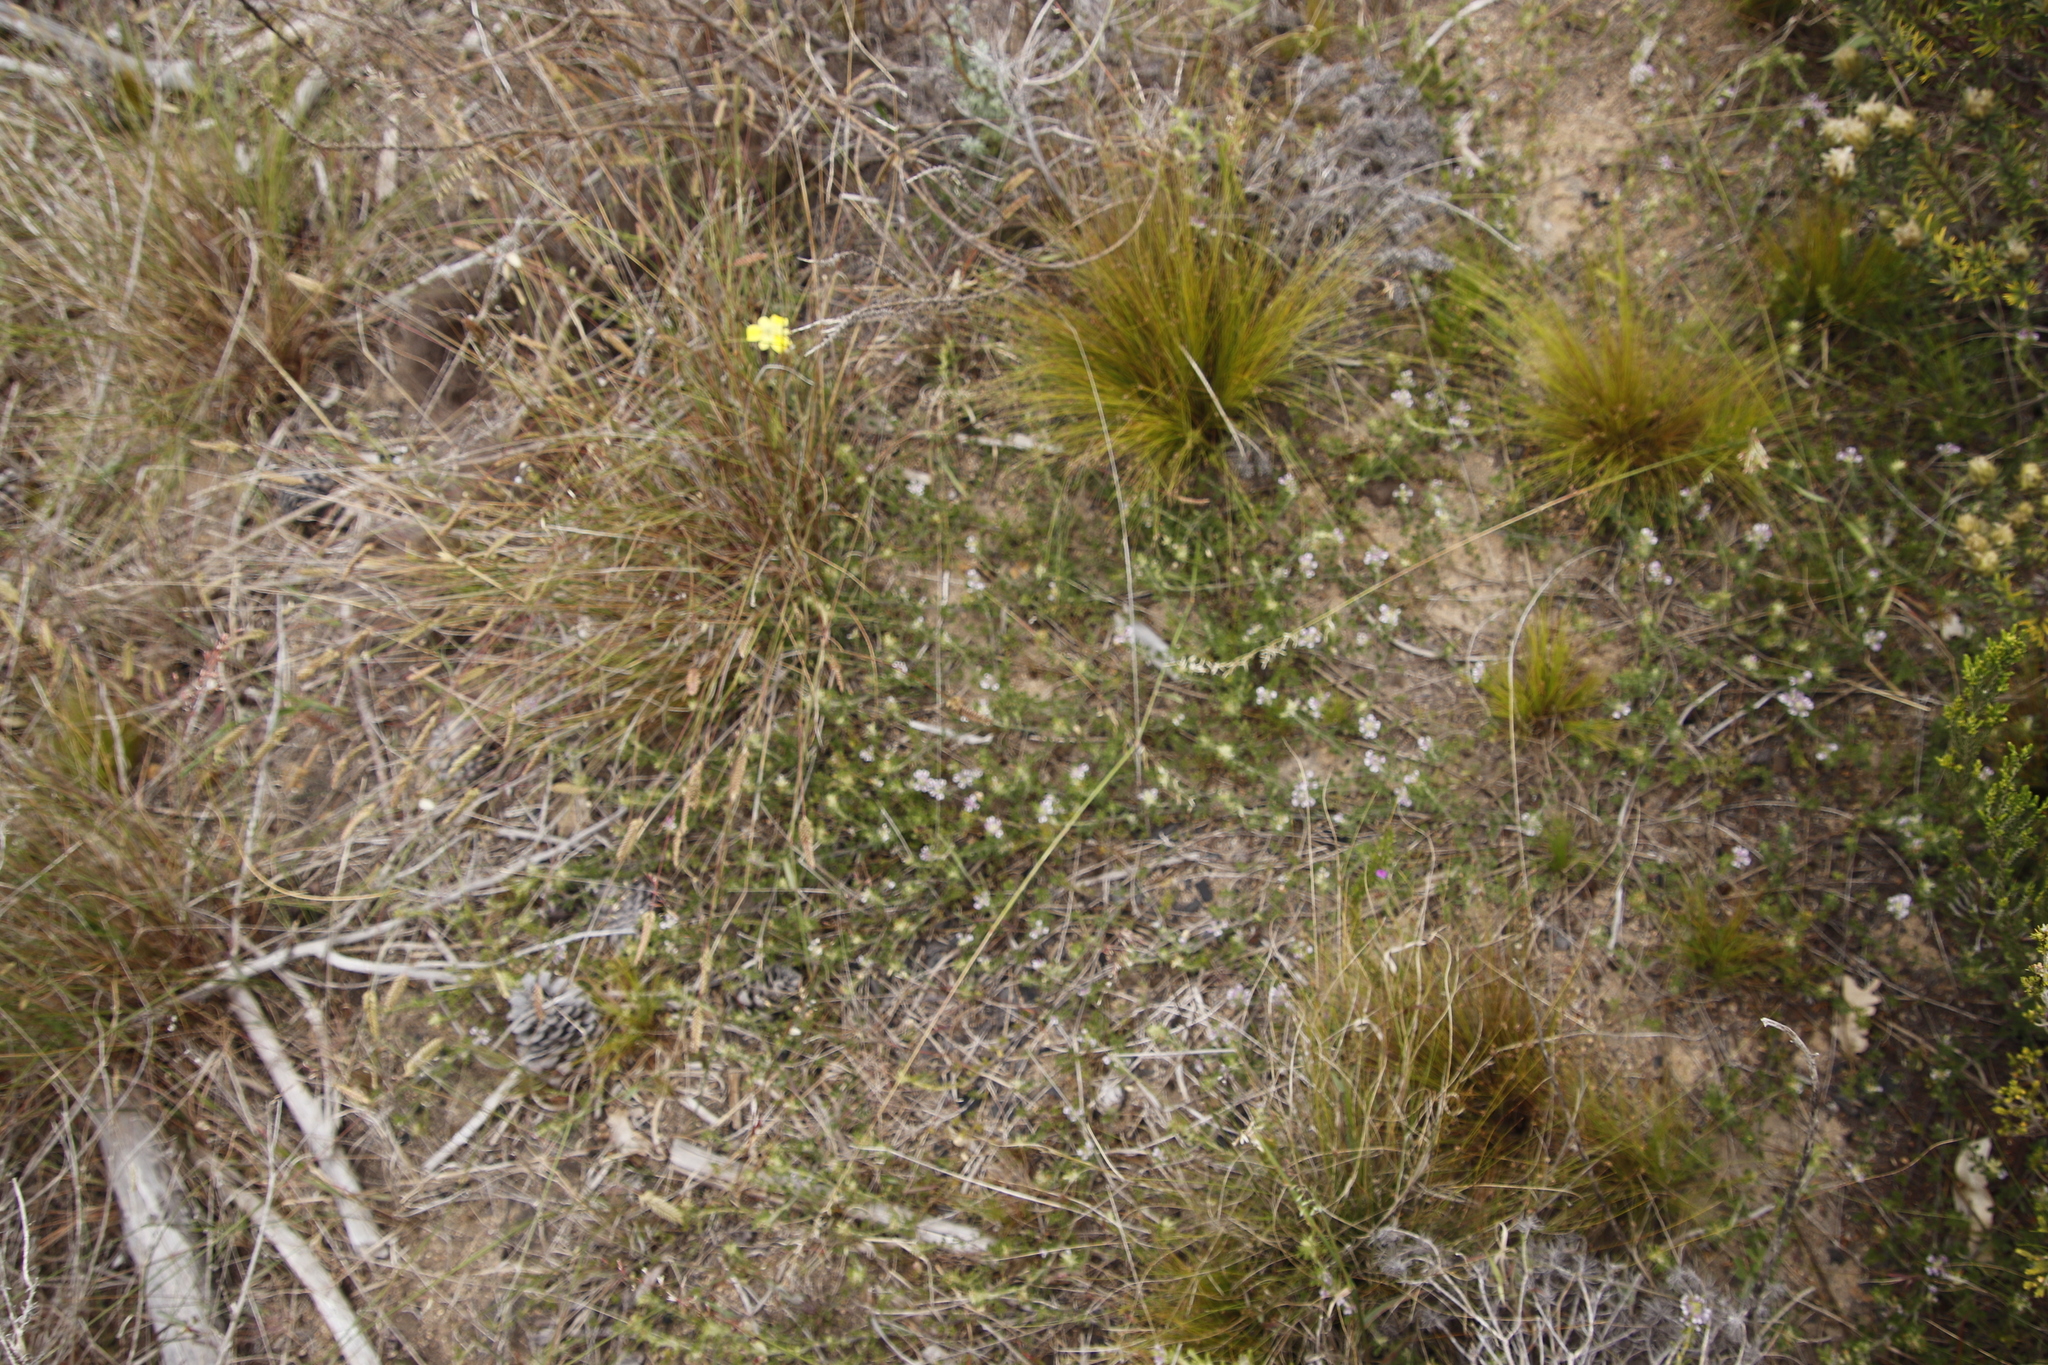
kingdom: Plantae
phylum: Tracheophyta
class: Magnoliopsida
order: Fabales
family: Fabaceae
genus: Psoralea
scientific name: Psoralea
